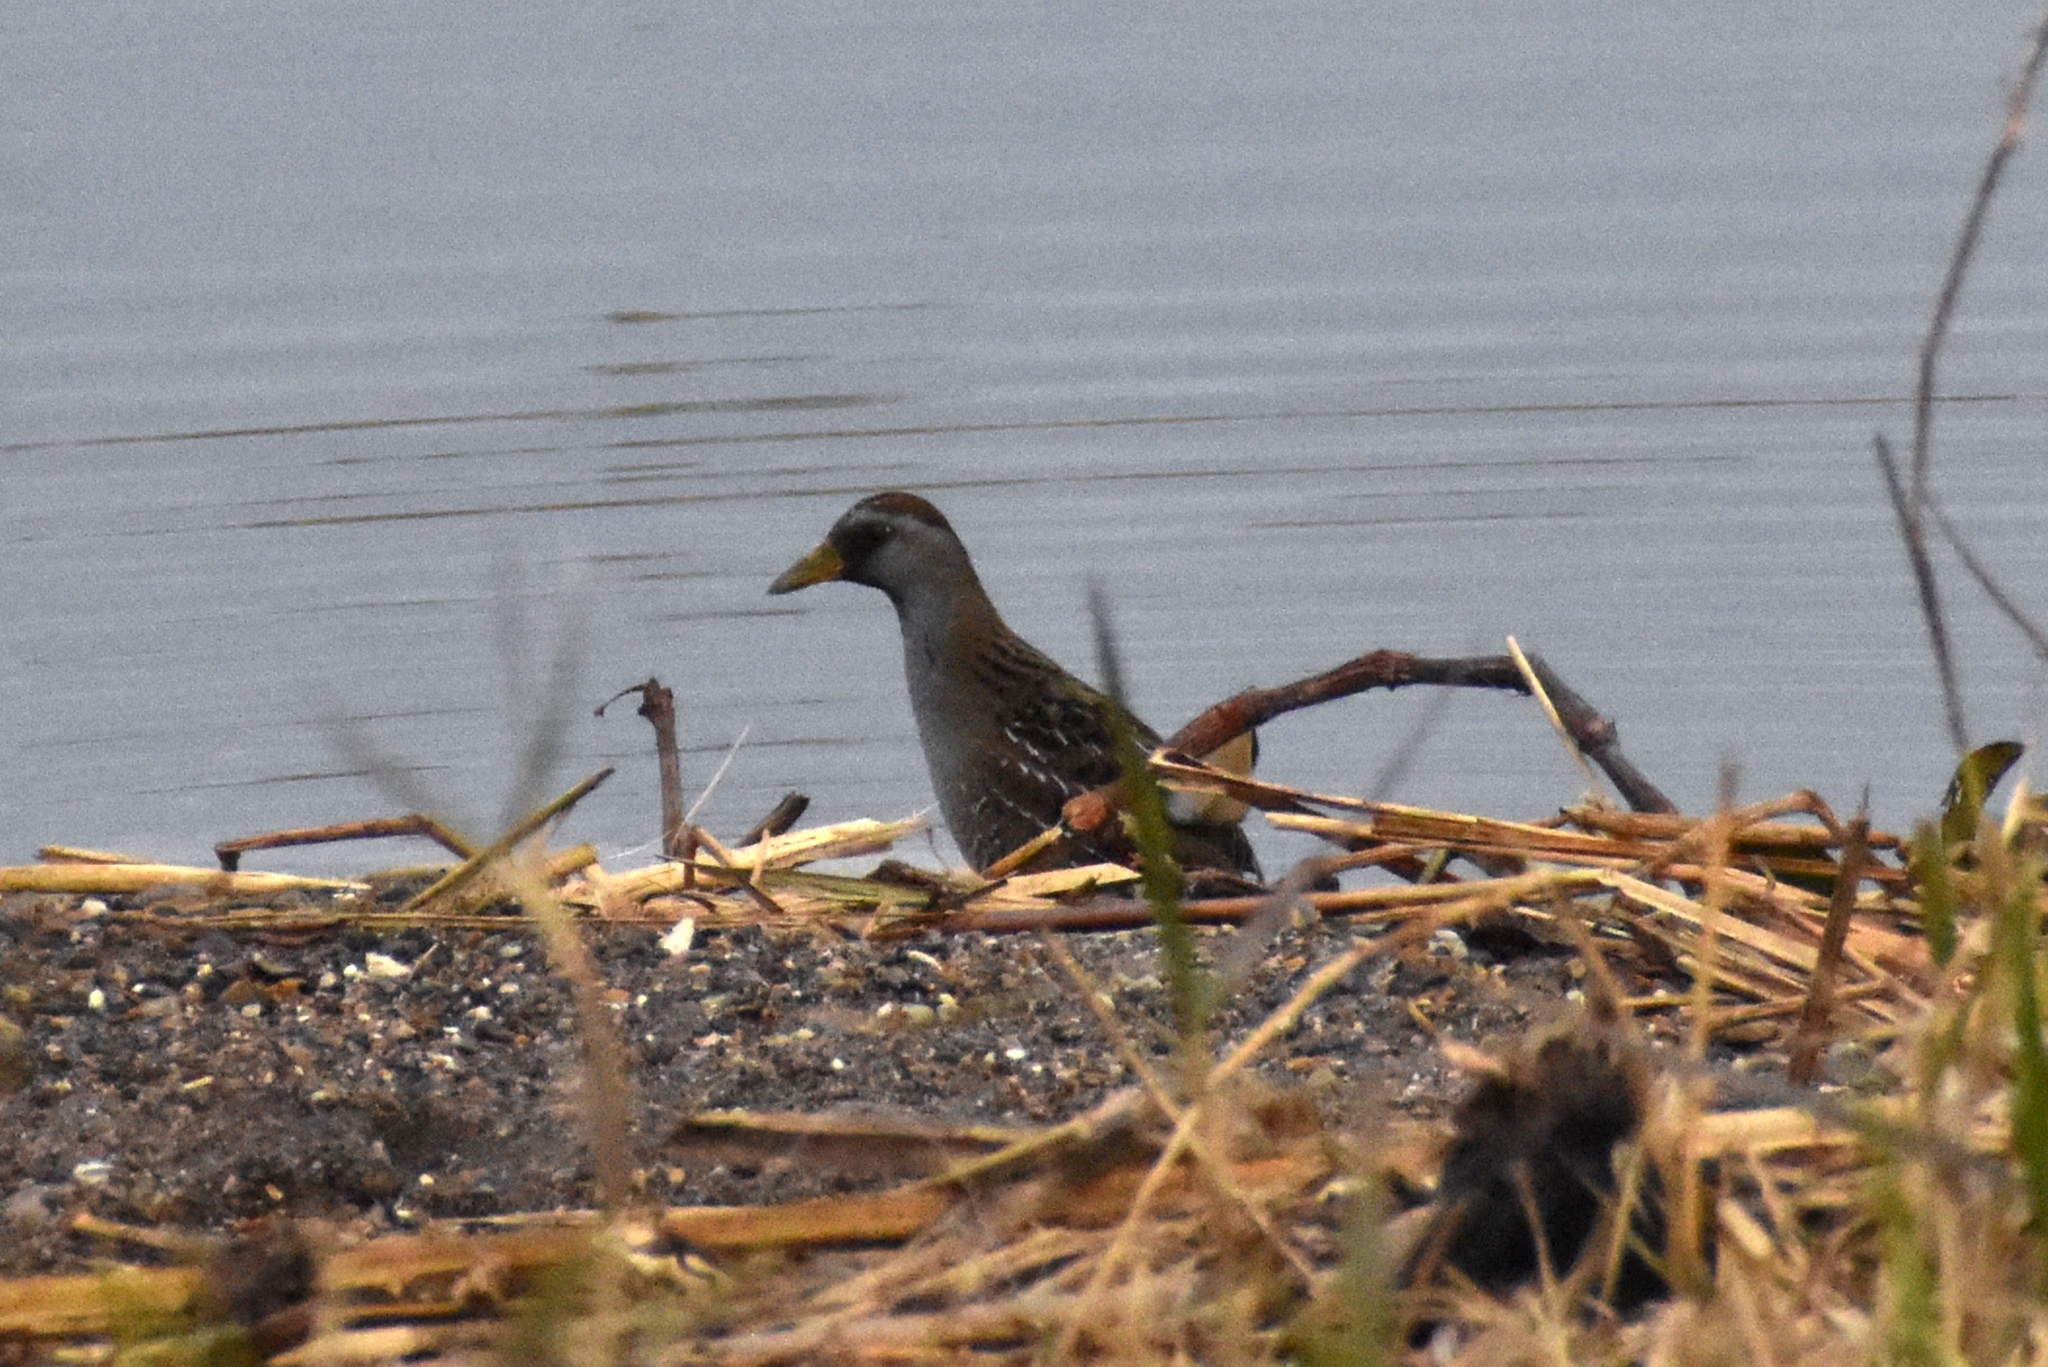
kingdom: Animalia
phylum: Chordata
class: Aves
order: Gruiformes
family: Rallidae
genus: Porzana
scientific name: Porzana carolina
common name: Sora
